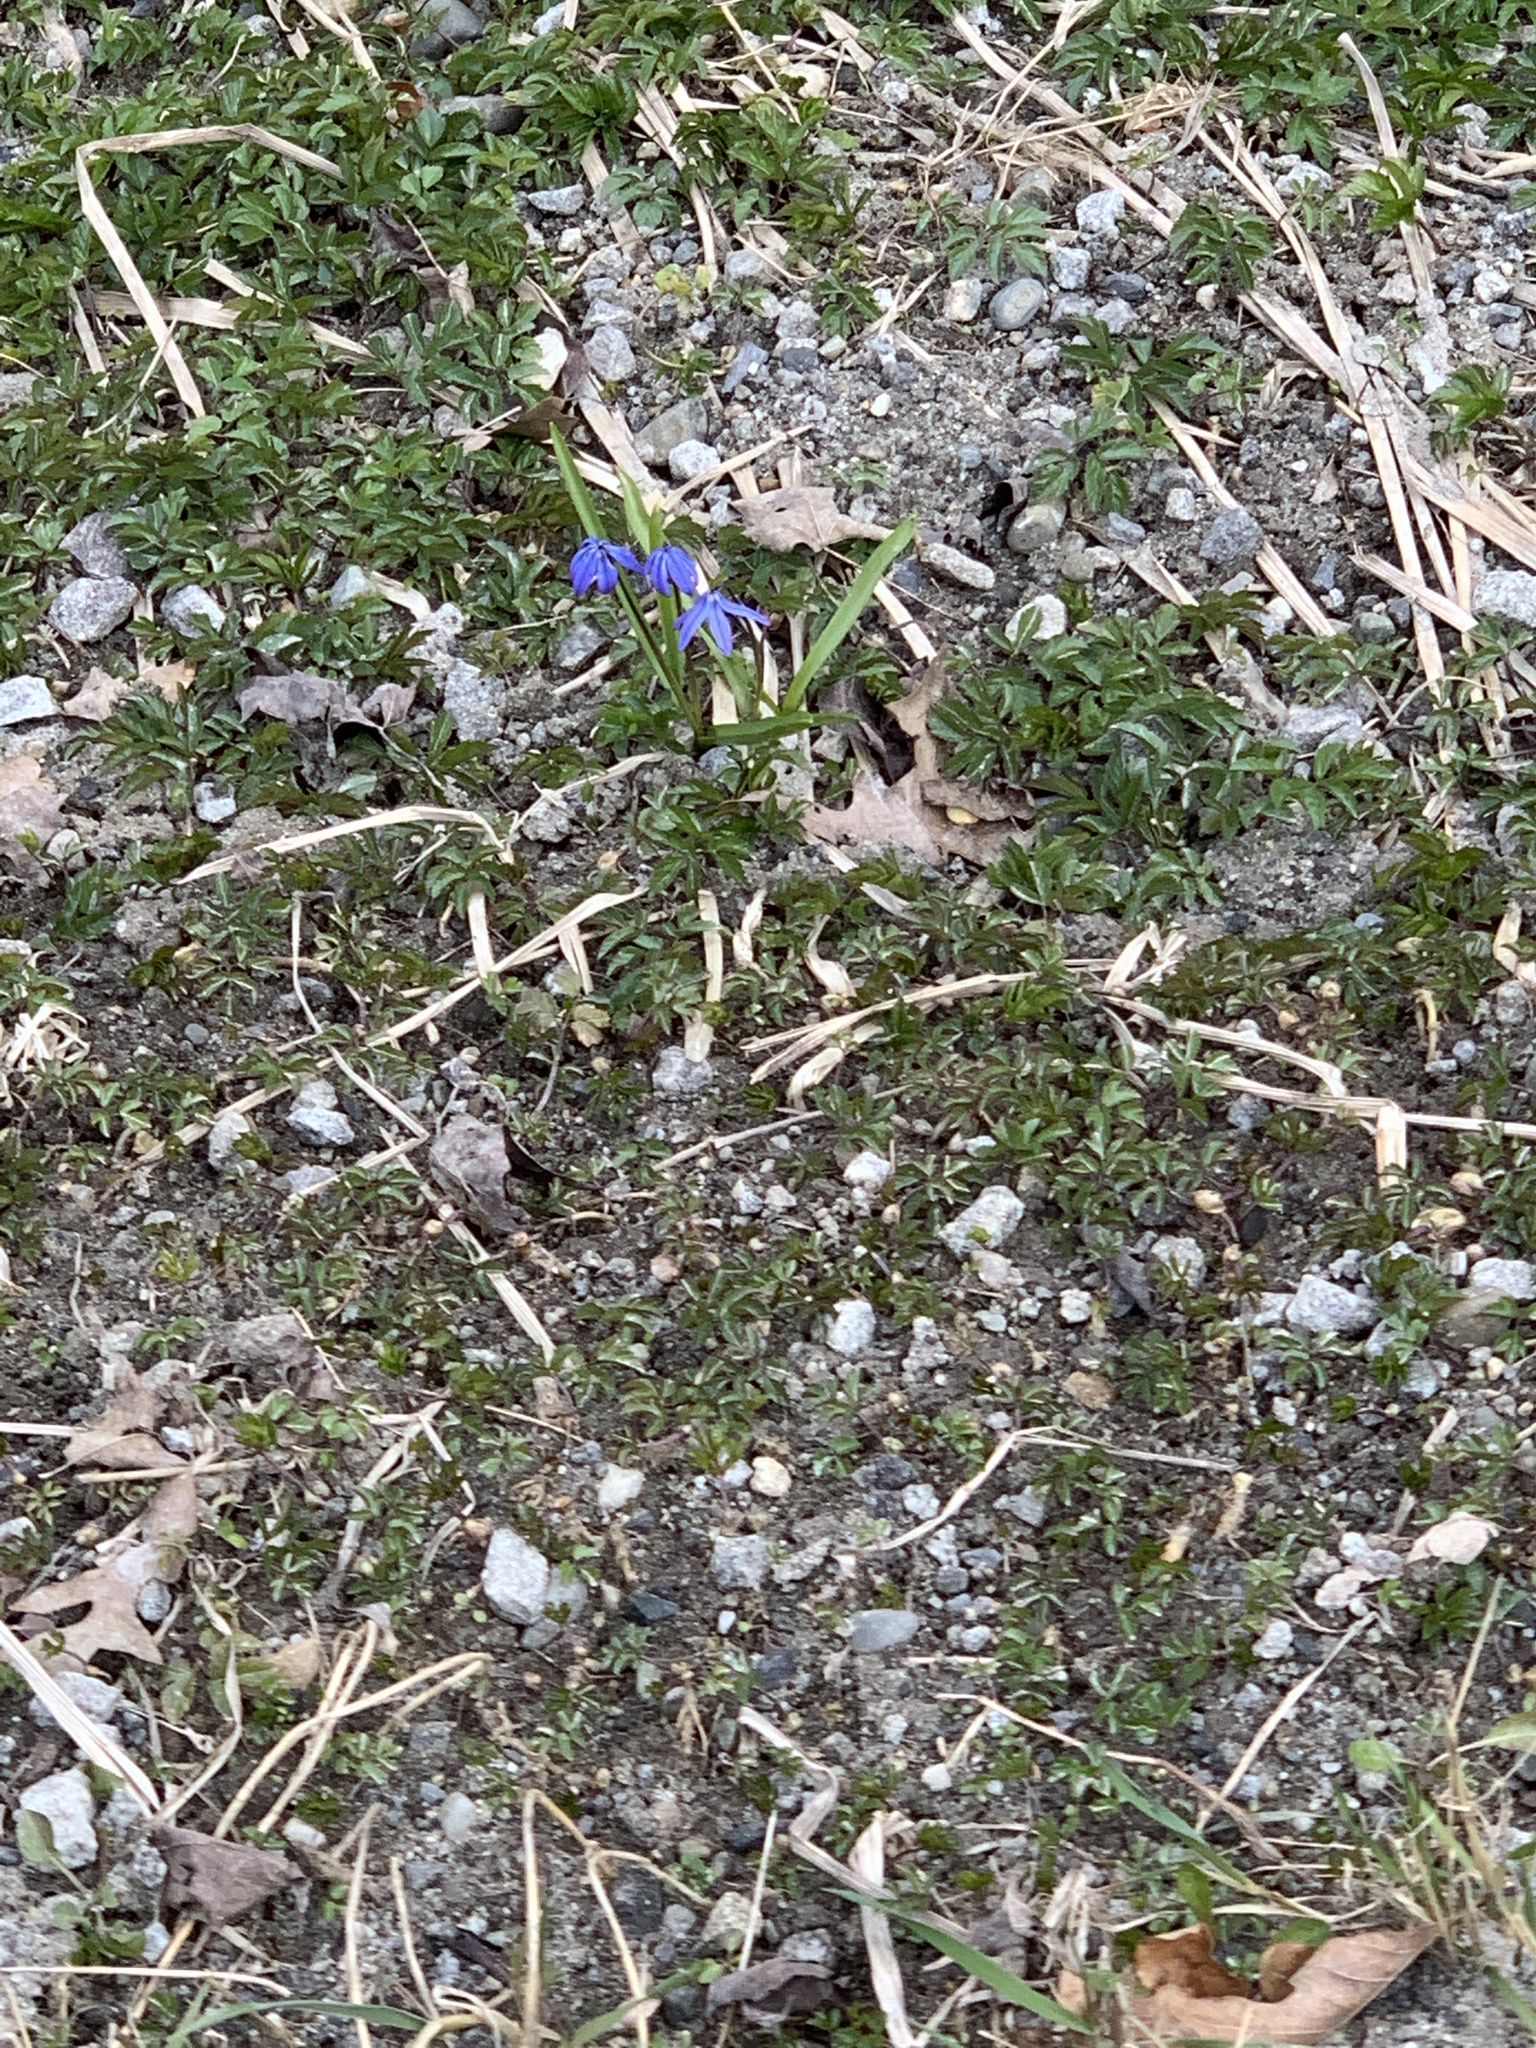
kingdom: Plantae
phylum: Tracheophyta
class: Liliopsida
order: Asparagales
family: Asparagaceae
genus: Scilla
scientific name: Scilla siberica
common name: Siberian squill
